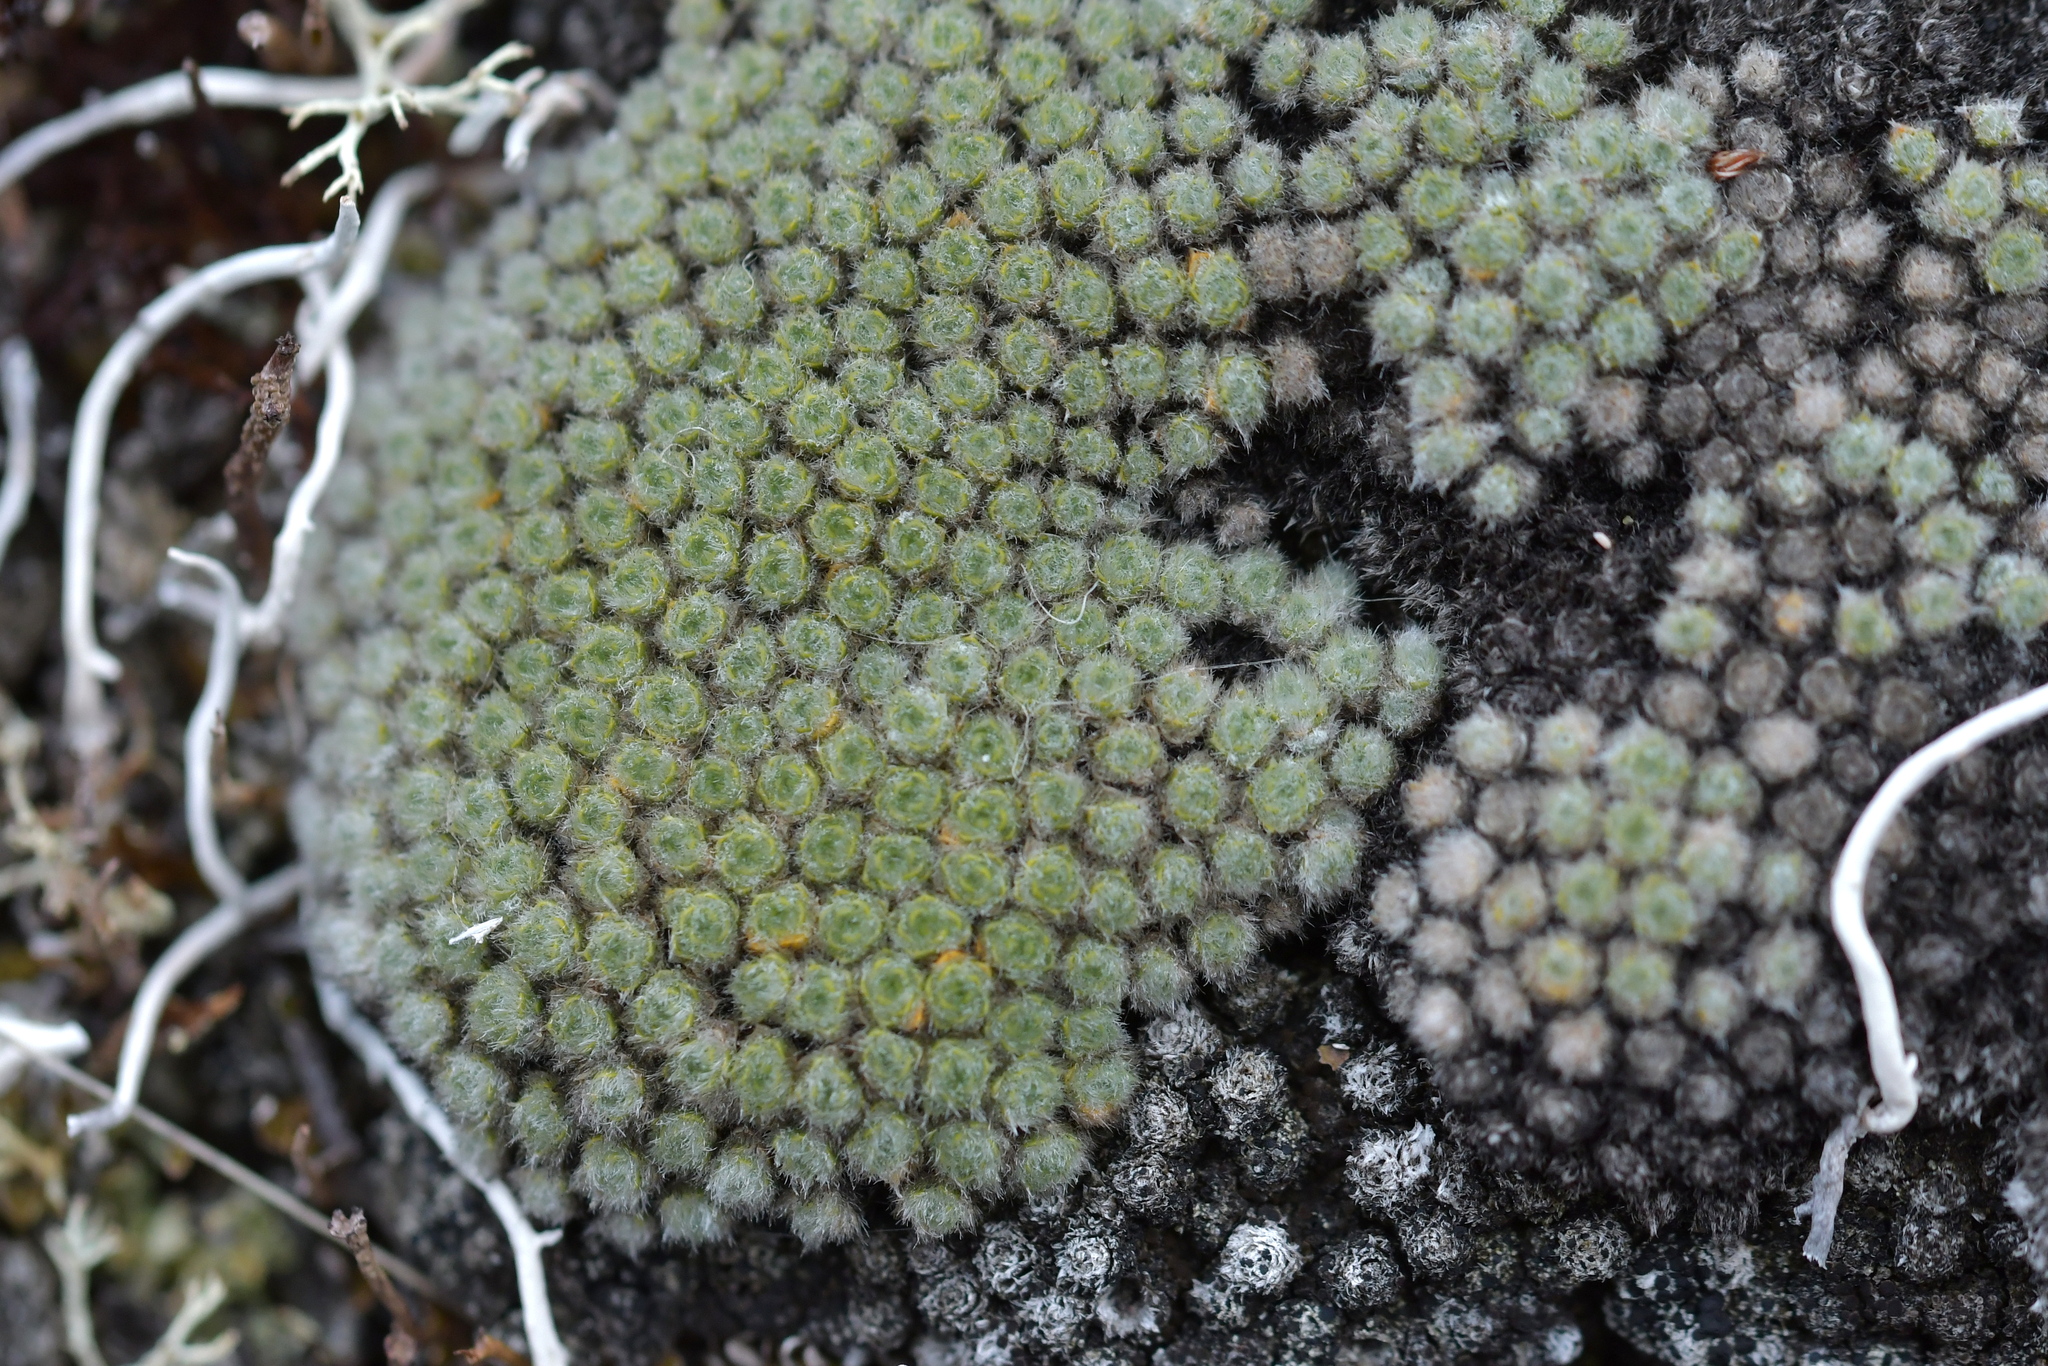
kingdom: Plantae
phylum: Tracheophyta
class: Magnoliopsida
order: Lamiales
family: Plantaginaceae
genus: Veronica
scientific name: Veronica thomsonii
